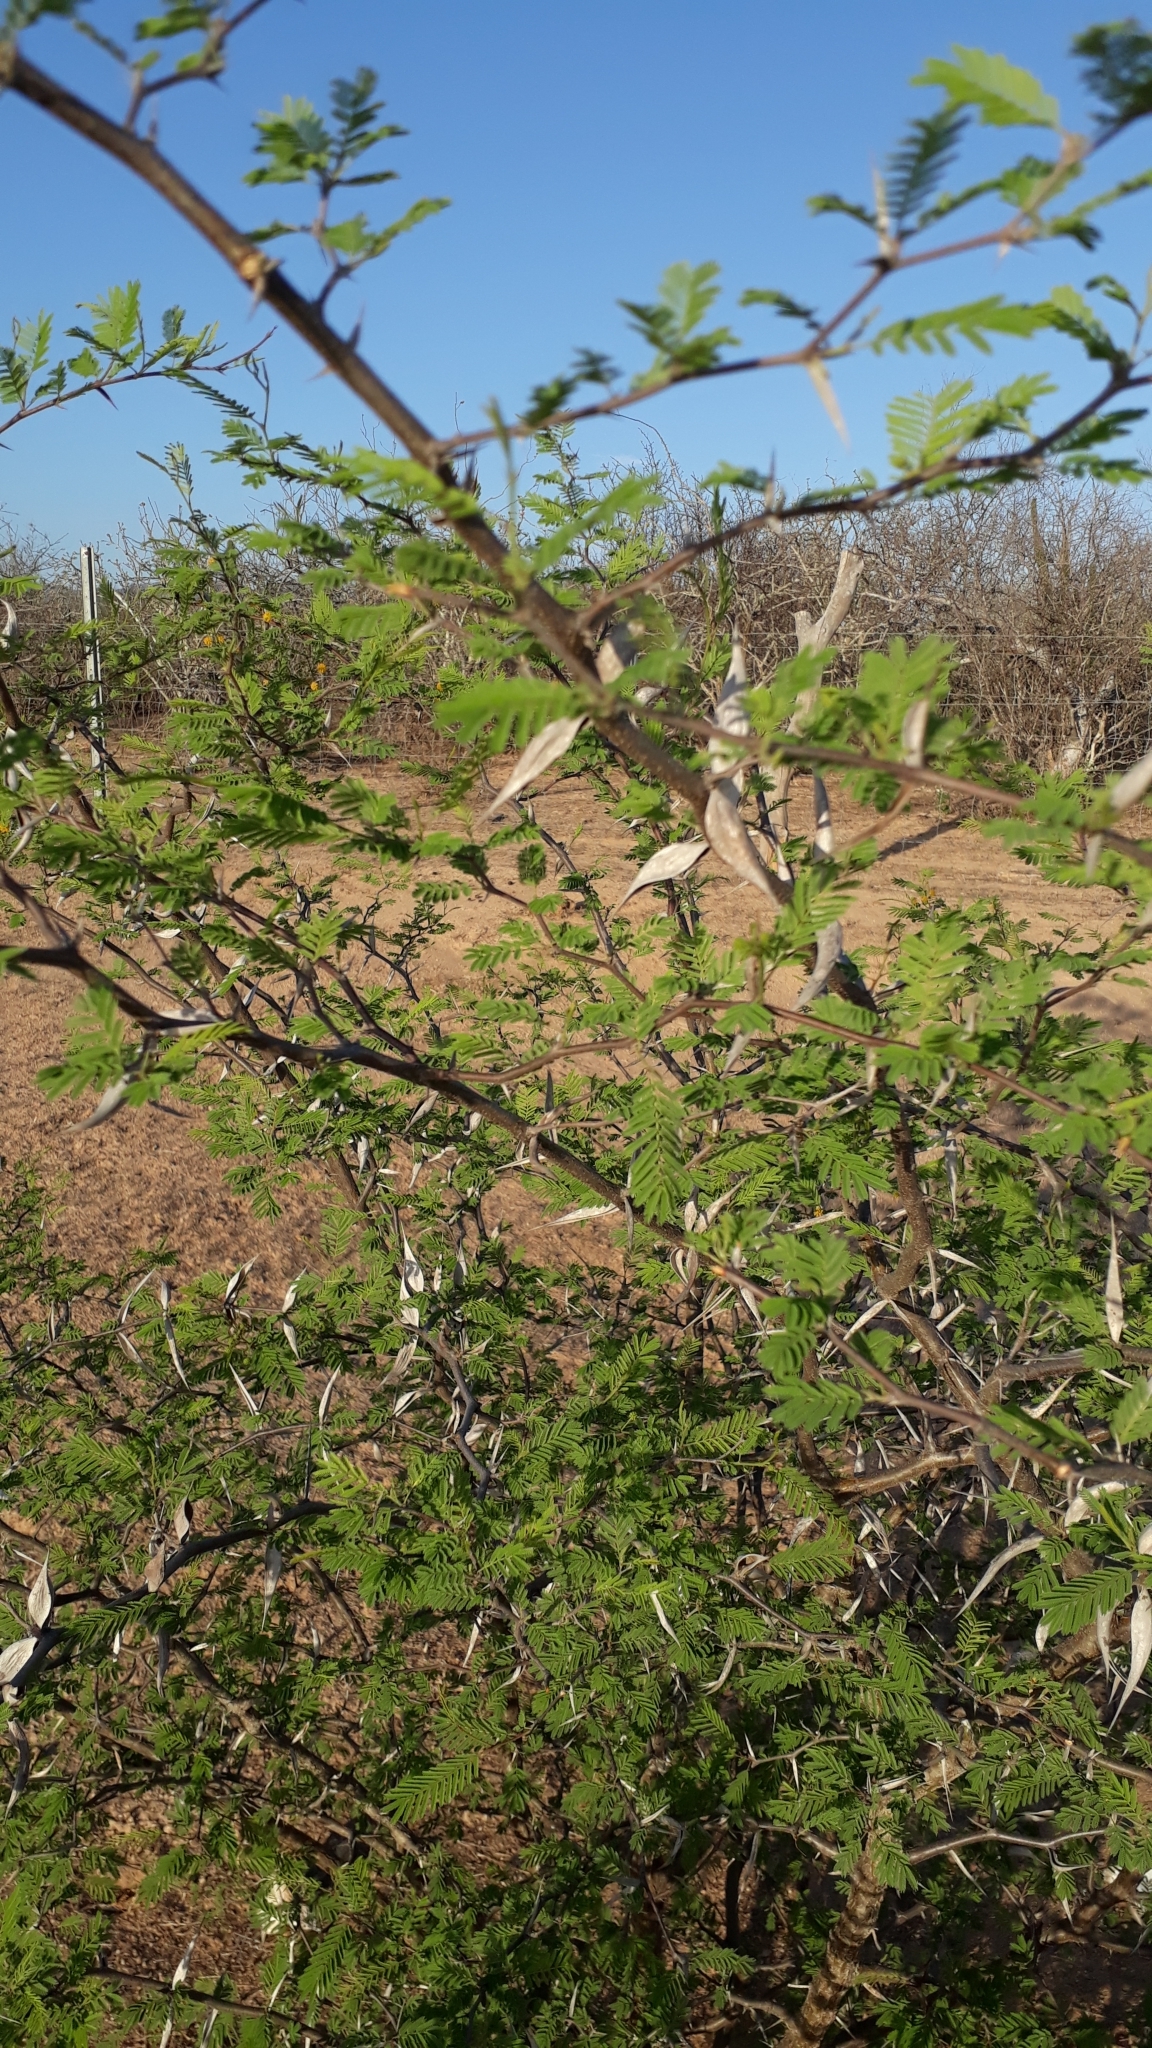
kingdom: Plantae
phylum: Tracheophyta
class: Magnoliopsida
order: Fabales
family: Fabaceae
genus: Vachellia
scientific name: Vachellia campechiana
